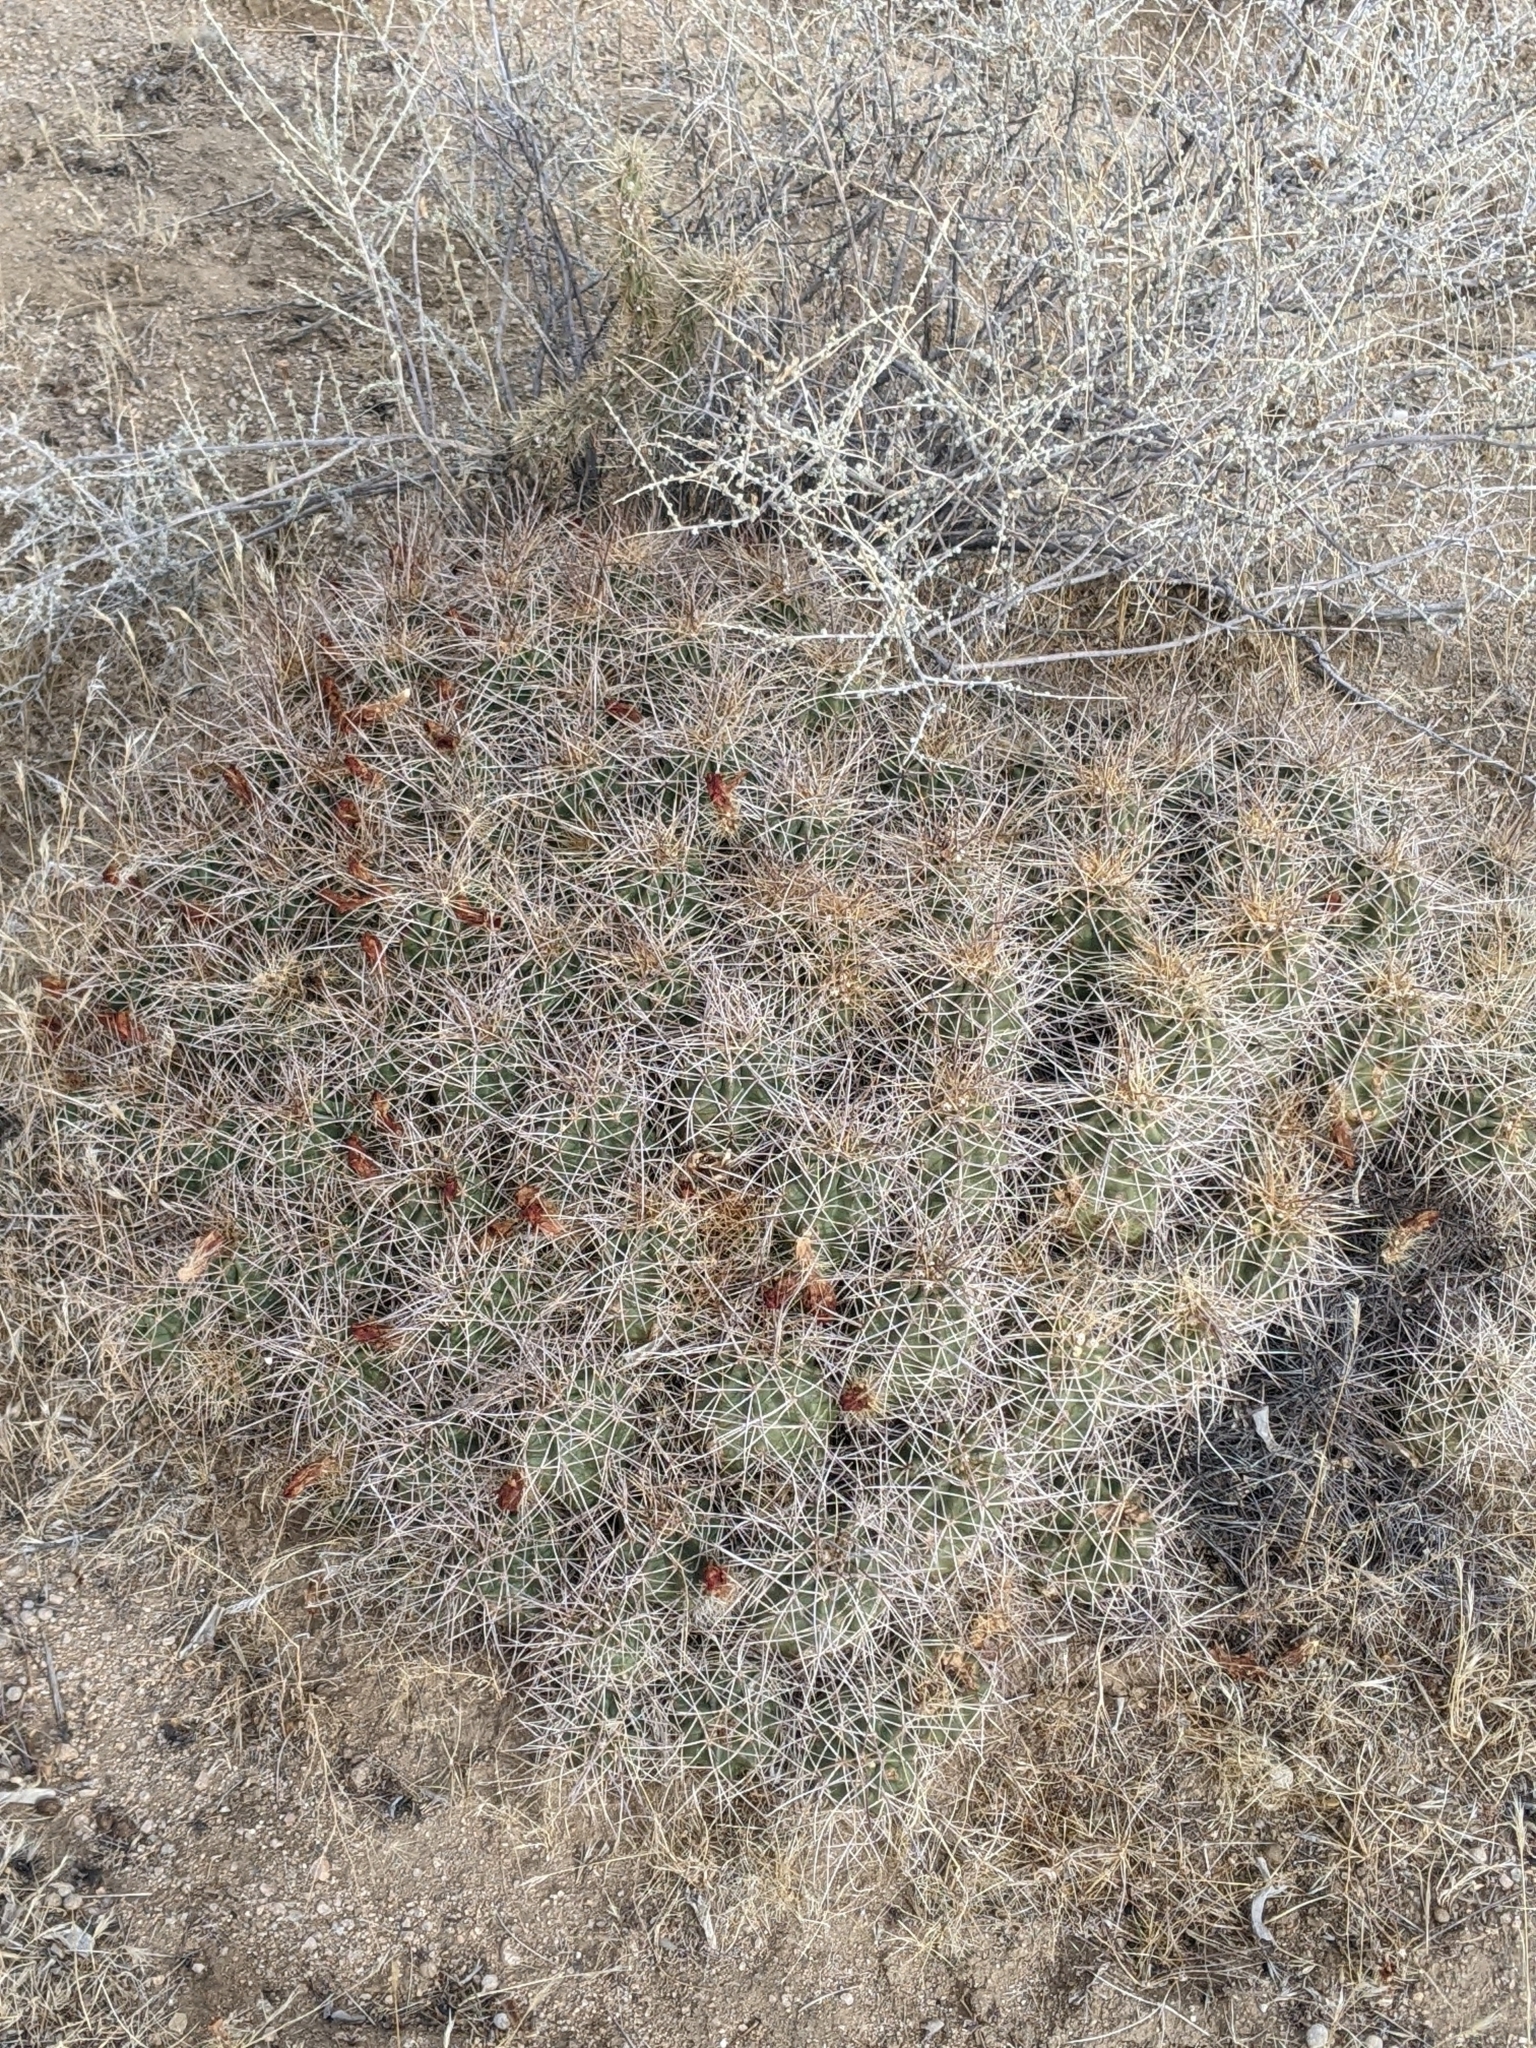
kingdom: Plantae
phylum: Tracheophyta
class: Magnoliopsida
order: Caryophyllales
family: Cactaceae
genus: Echinocereus
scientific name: Echinocereus triglochidiatus
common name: Claretcup hedgehog
